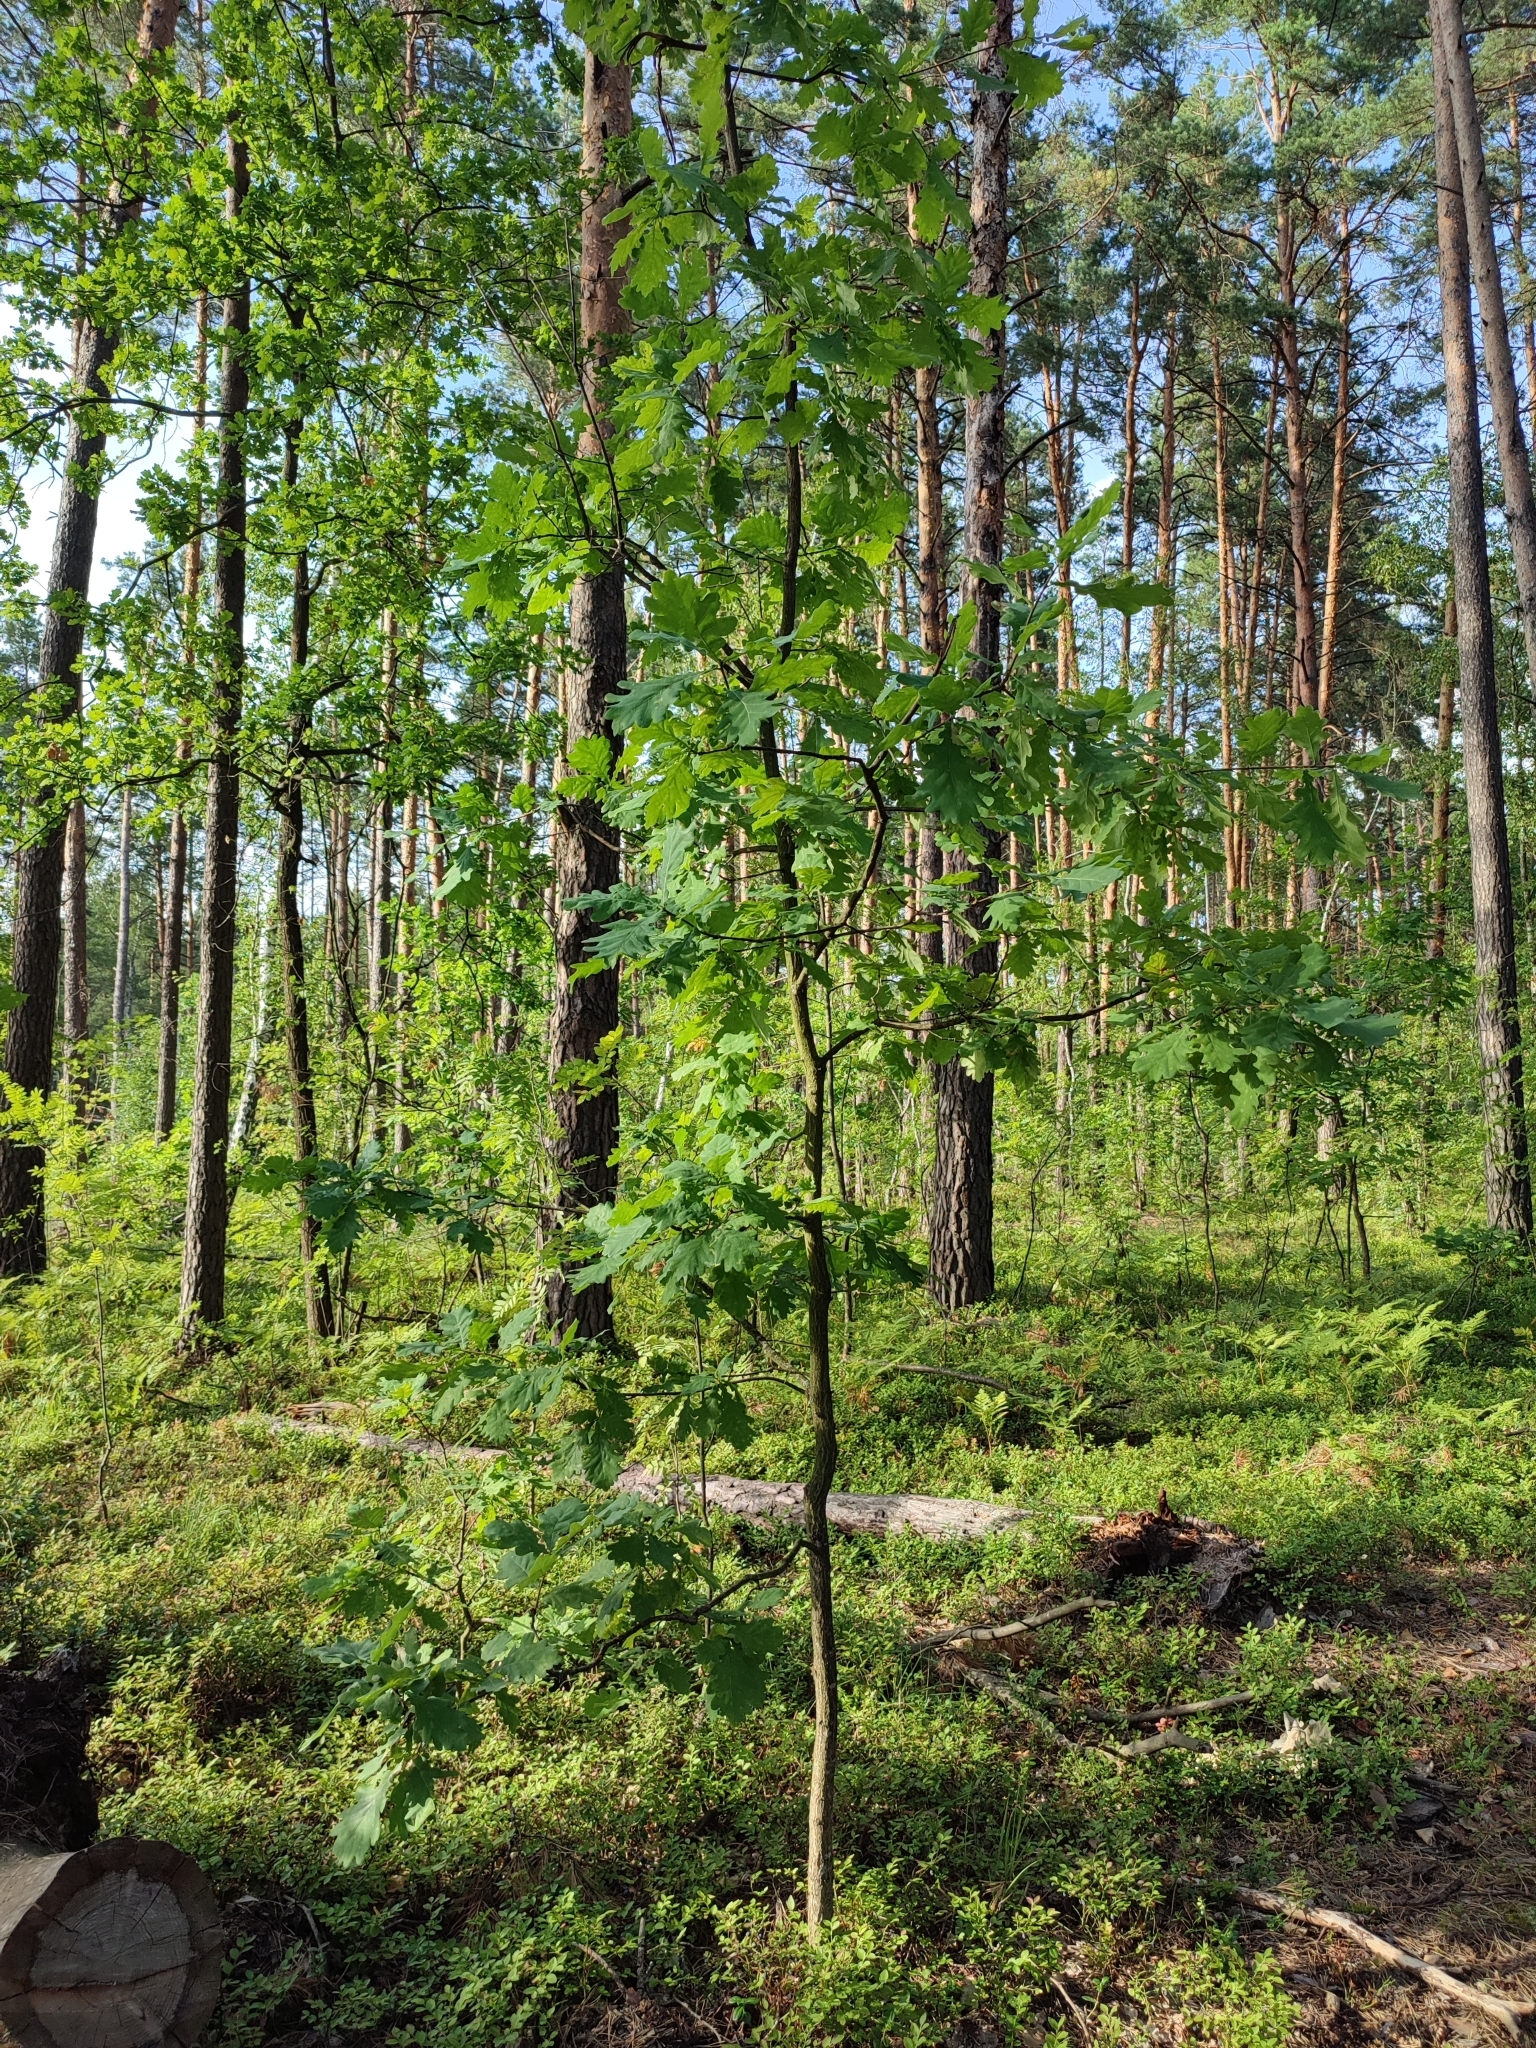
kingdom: Plantae
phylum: Tracheophyta
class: Magnoliopsida
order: Fagales
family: Fagaceae
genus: Quercus
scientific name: Quercus robur
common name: Pedunculate oak
